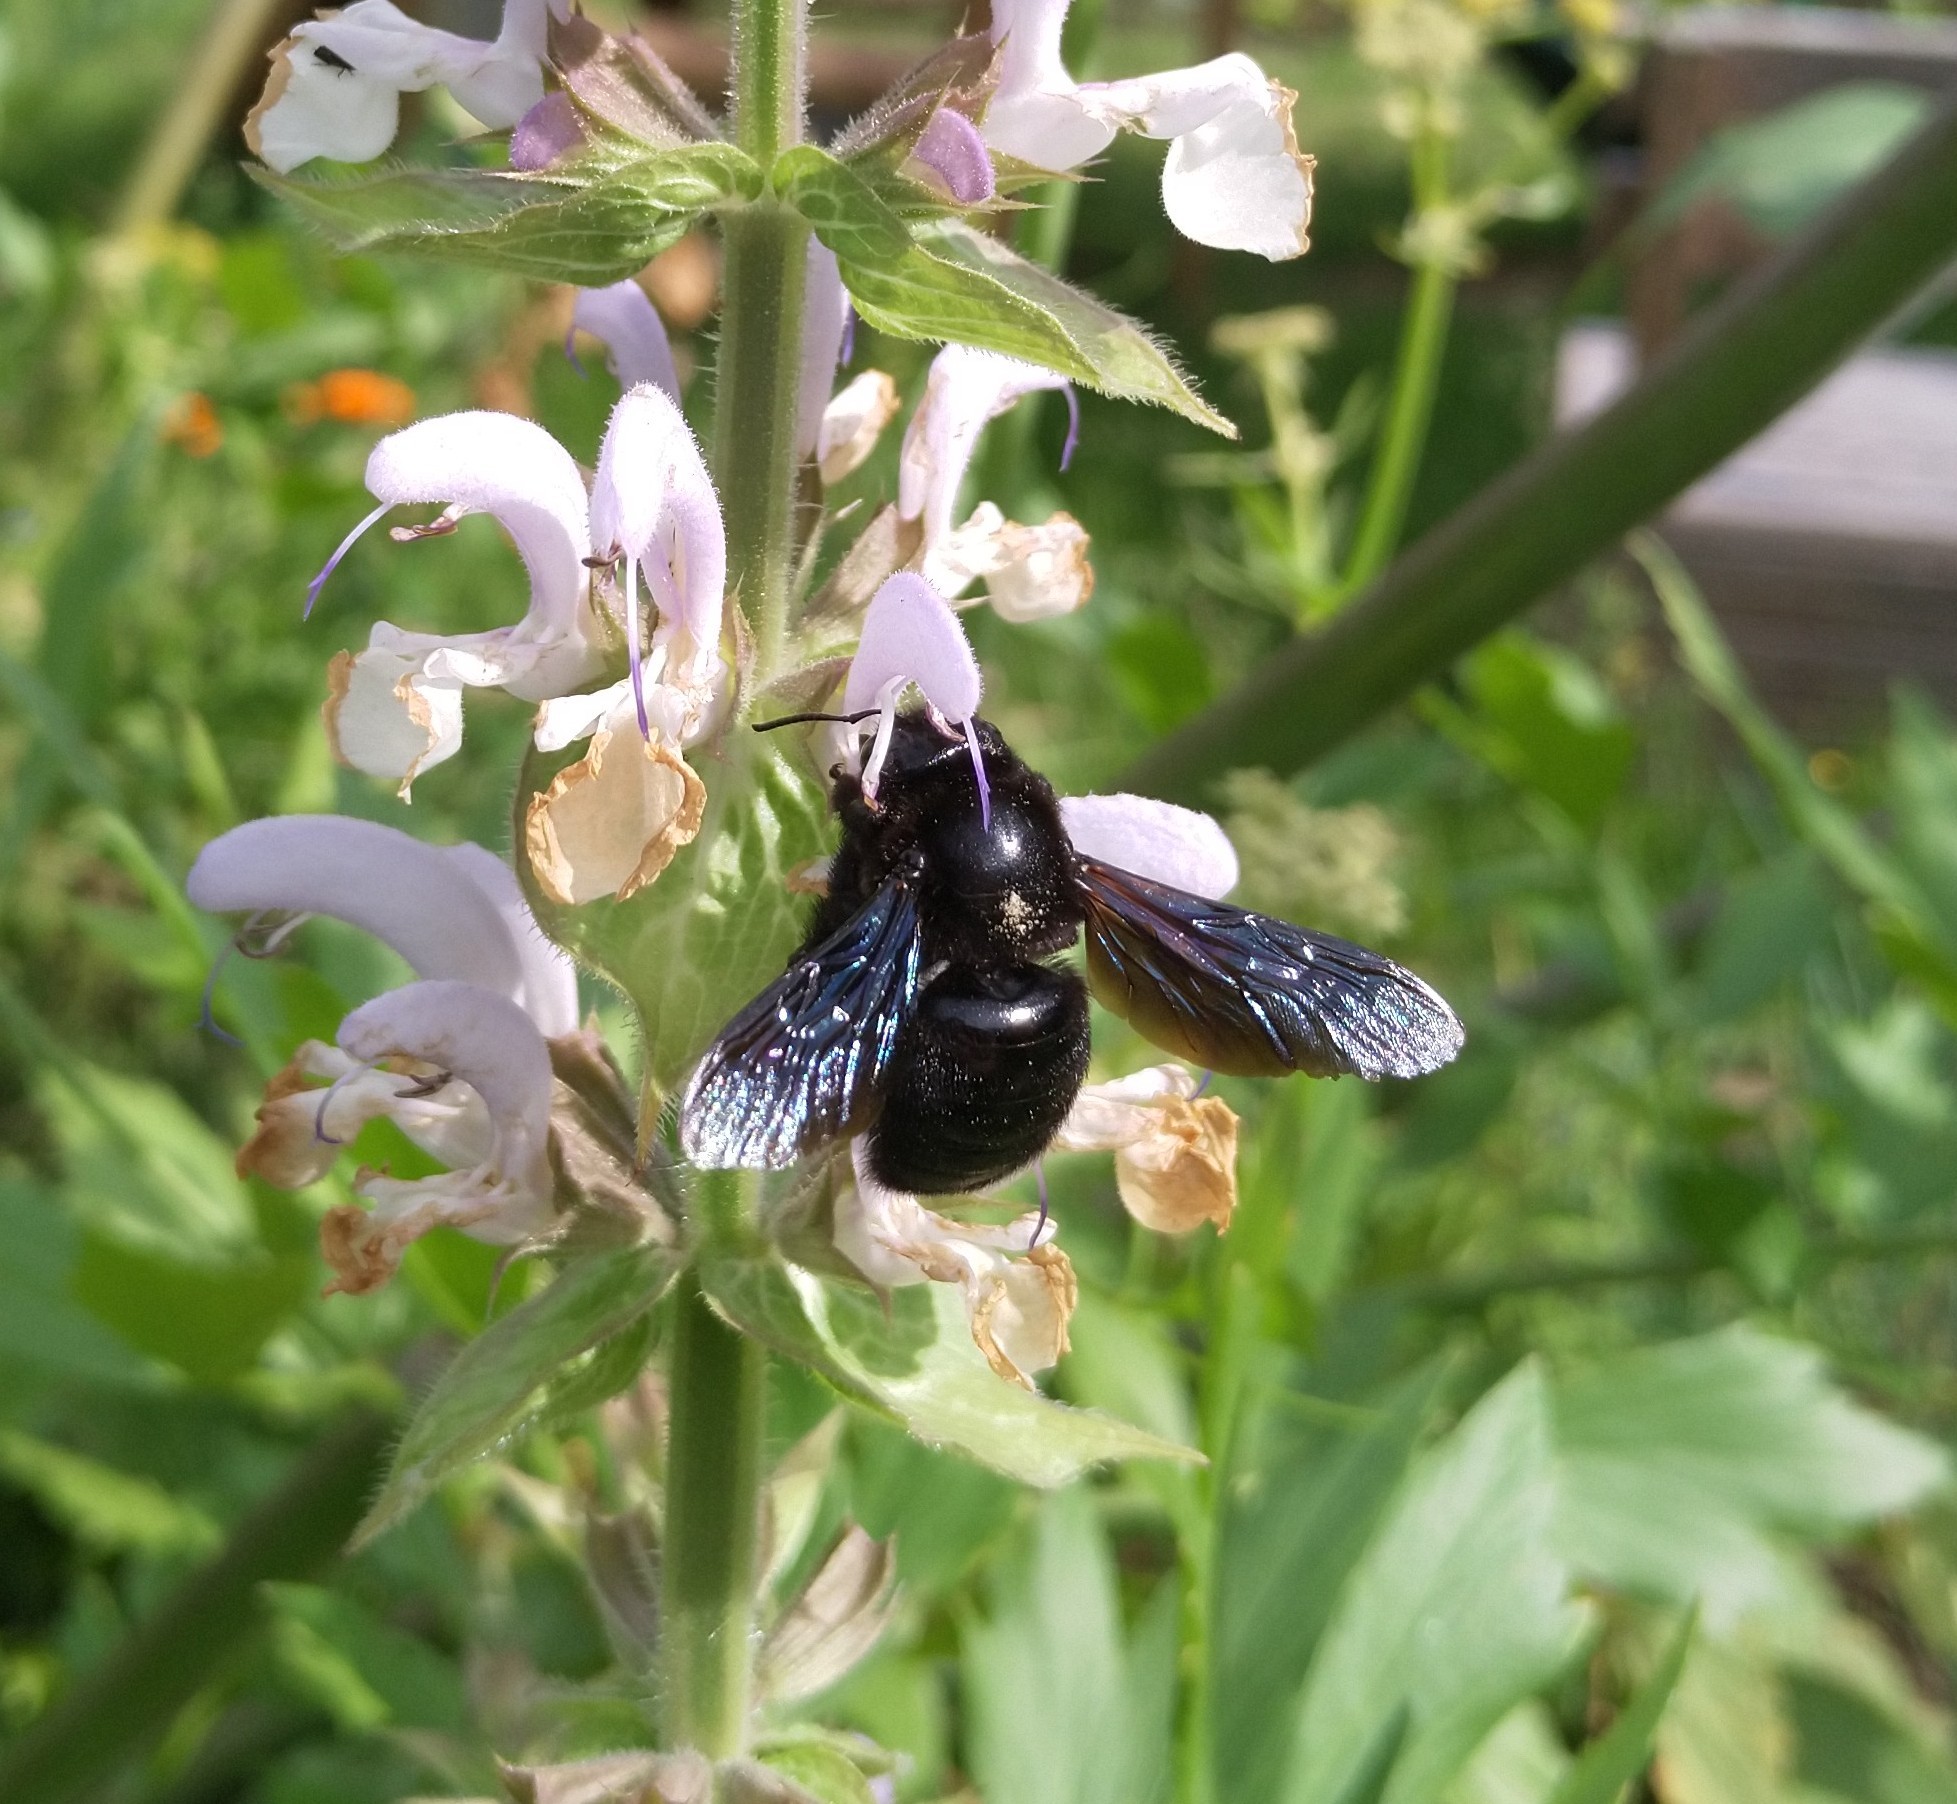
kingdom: Animalia
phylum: Arthropoda
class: Insecta
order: Hymenoptera
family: Apidae
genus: Xylocopa
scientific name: Xylocopa violacea
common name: Violet carpenter bee
